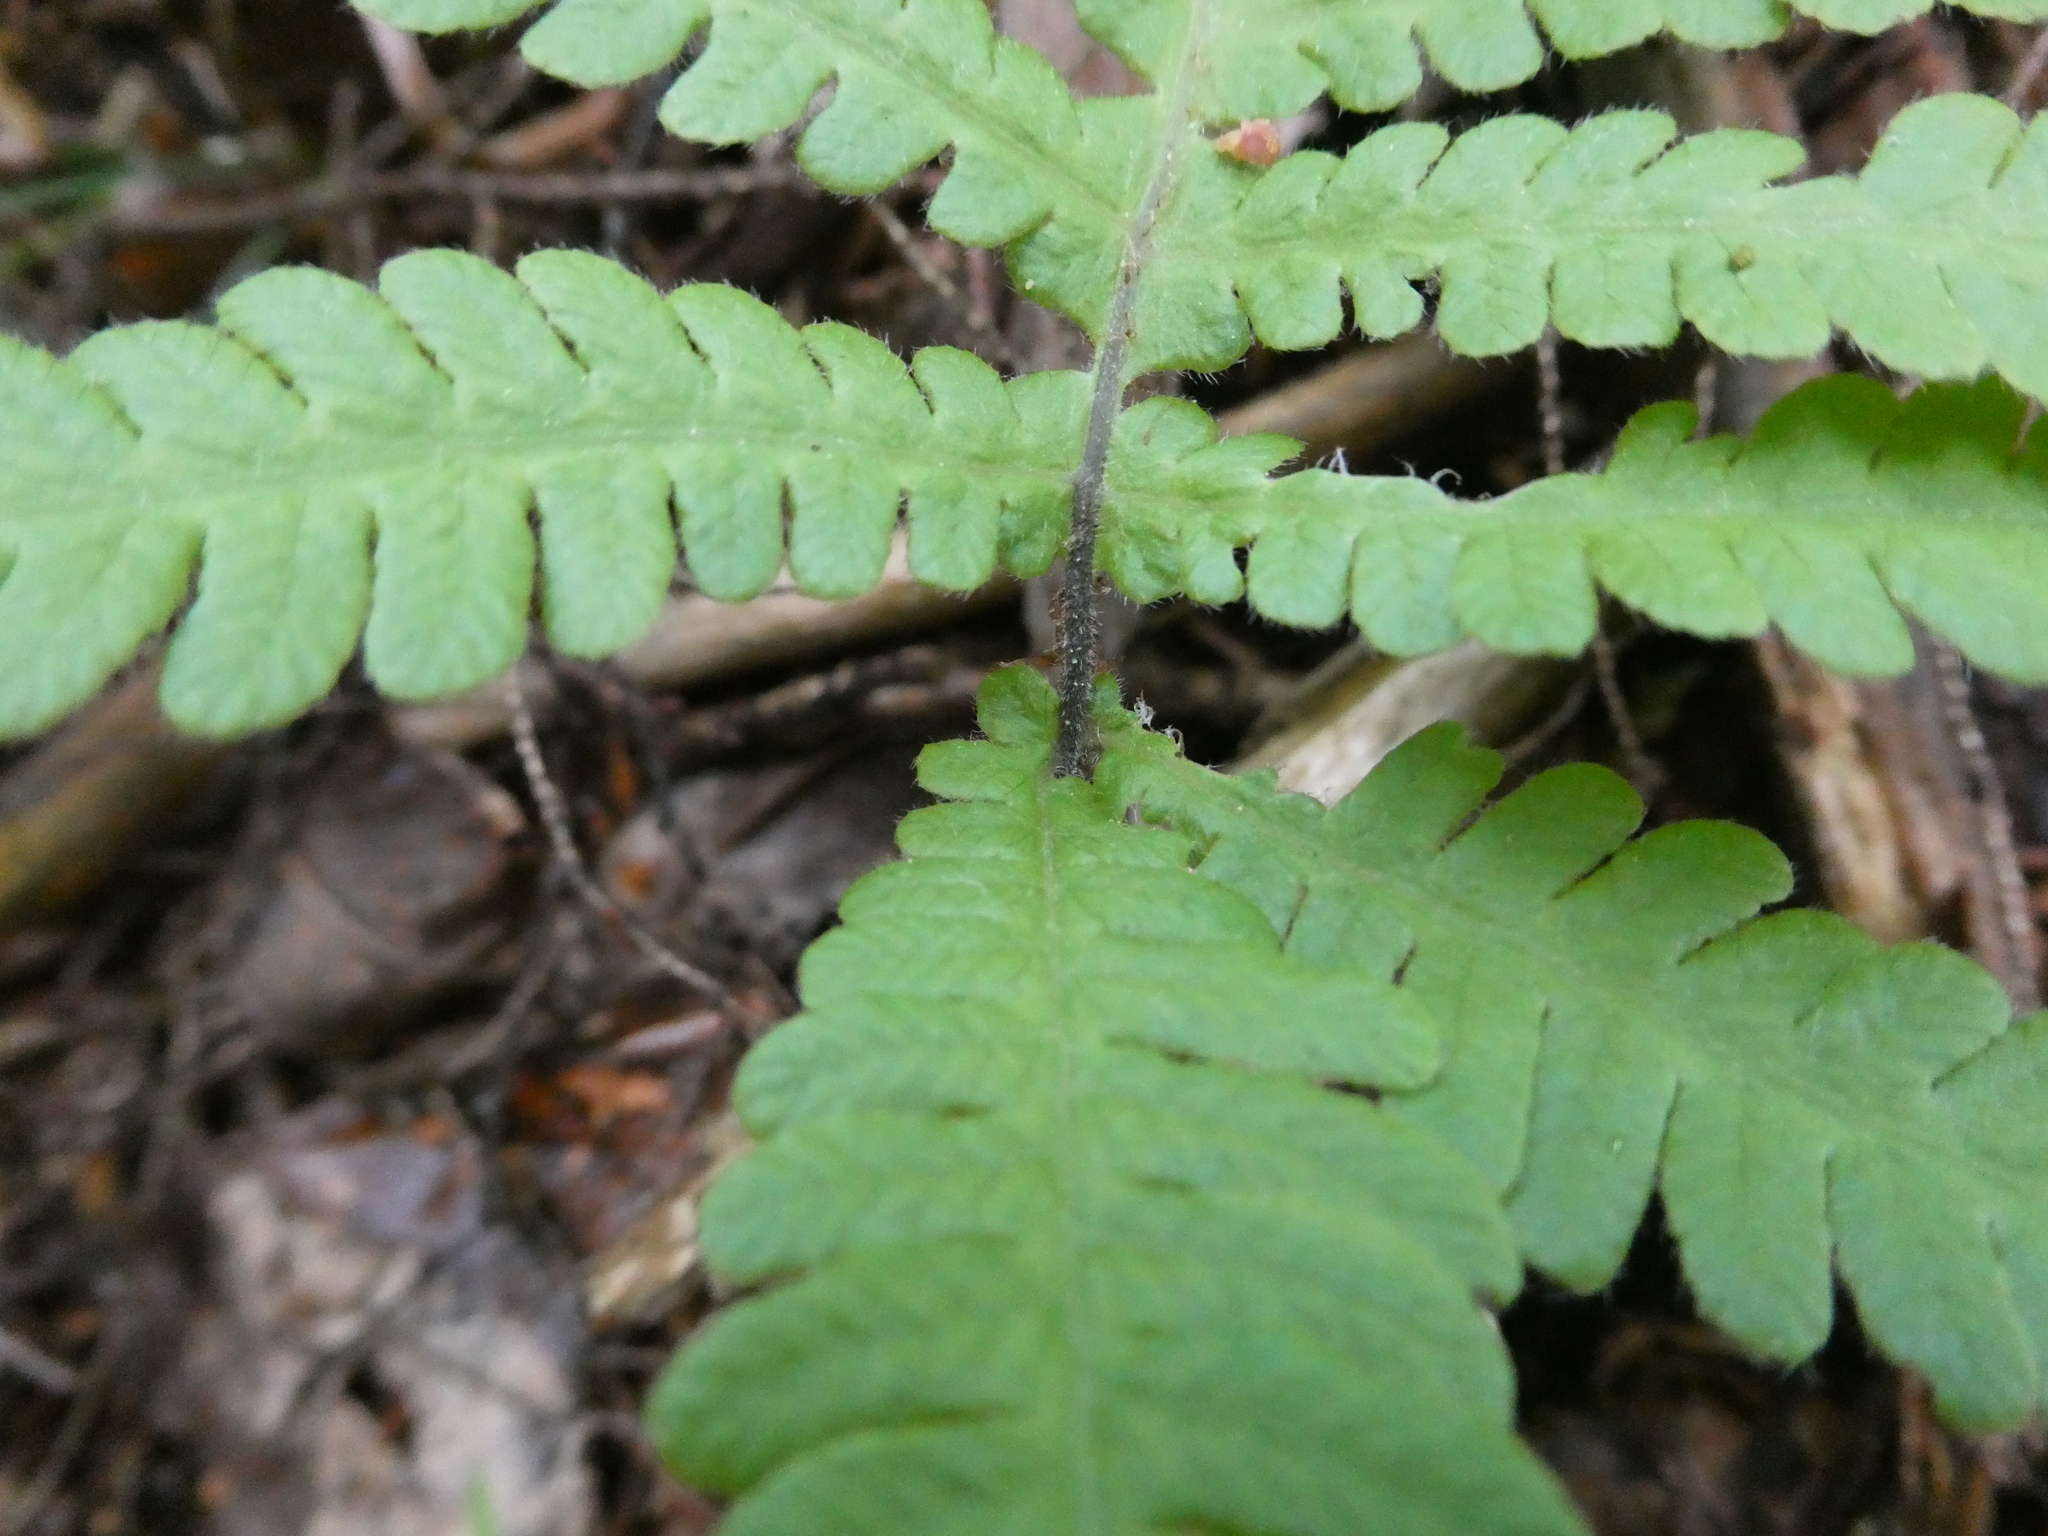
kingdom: Plantae
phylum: Tracheophyta
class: Polypodiopsida
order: Polypodiales
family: Thelypteridaceae
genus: Phegopteris
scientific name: Phegopteris connectilis
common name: Beech fern
